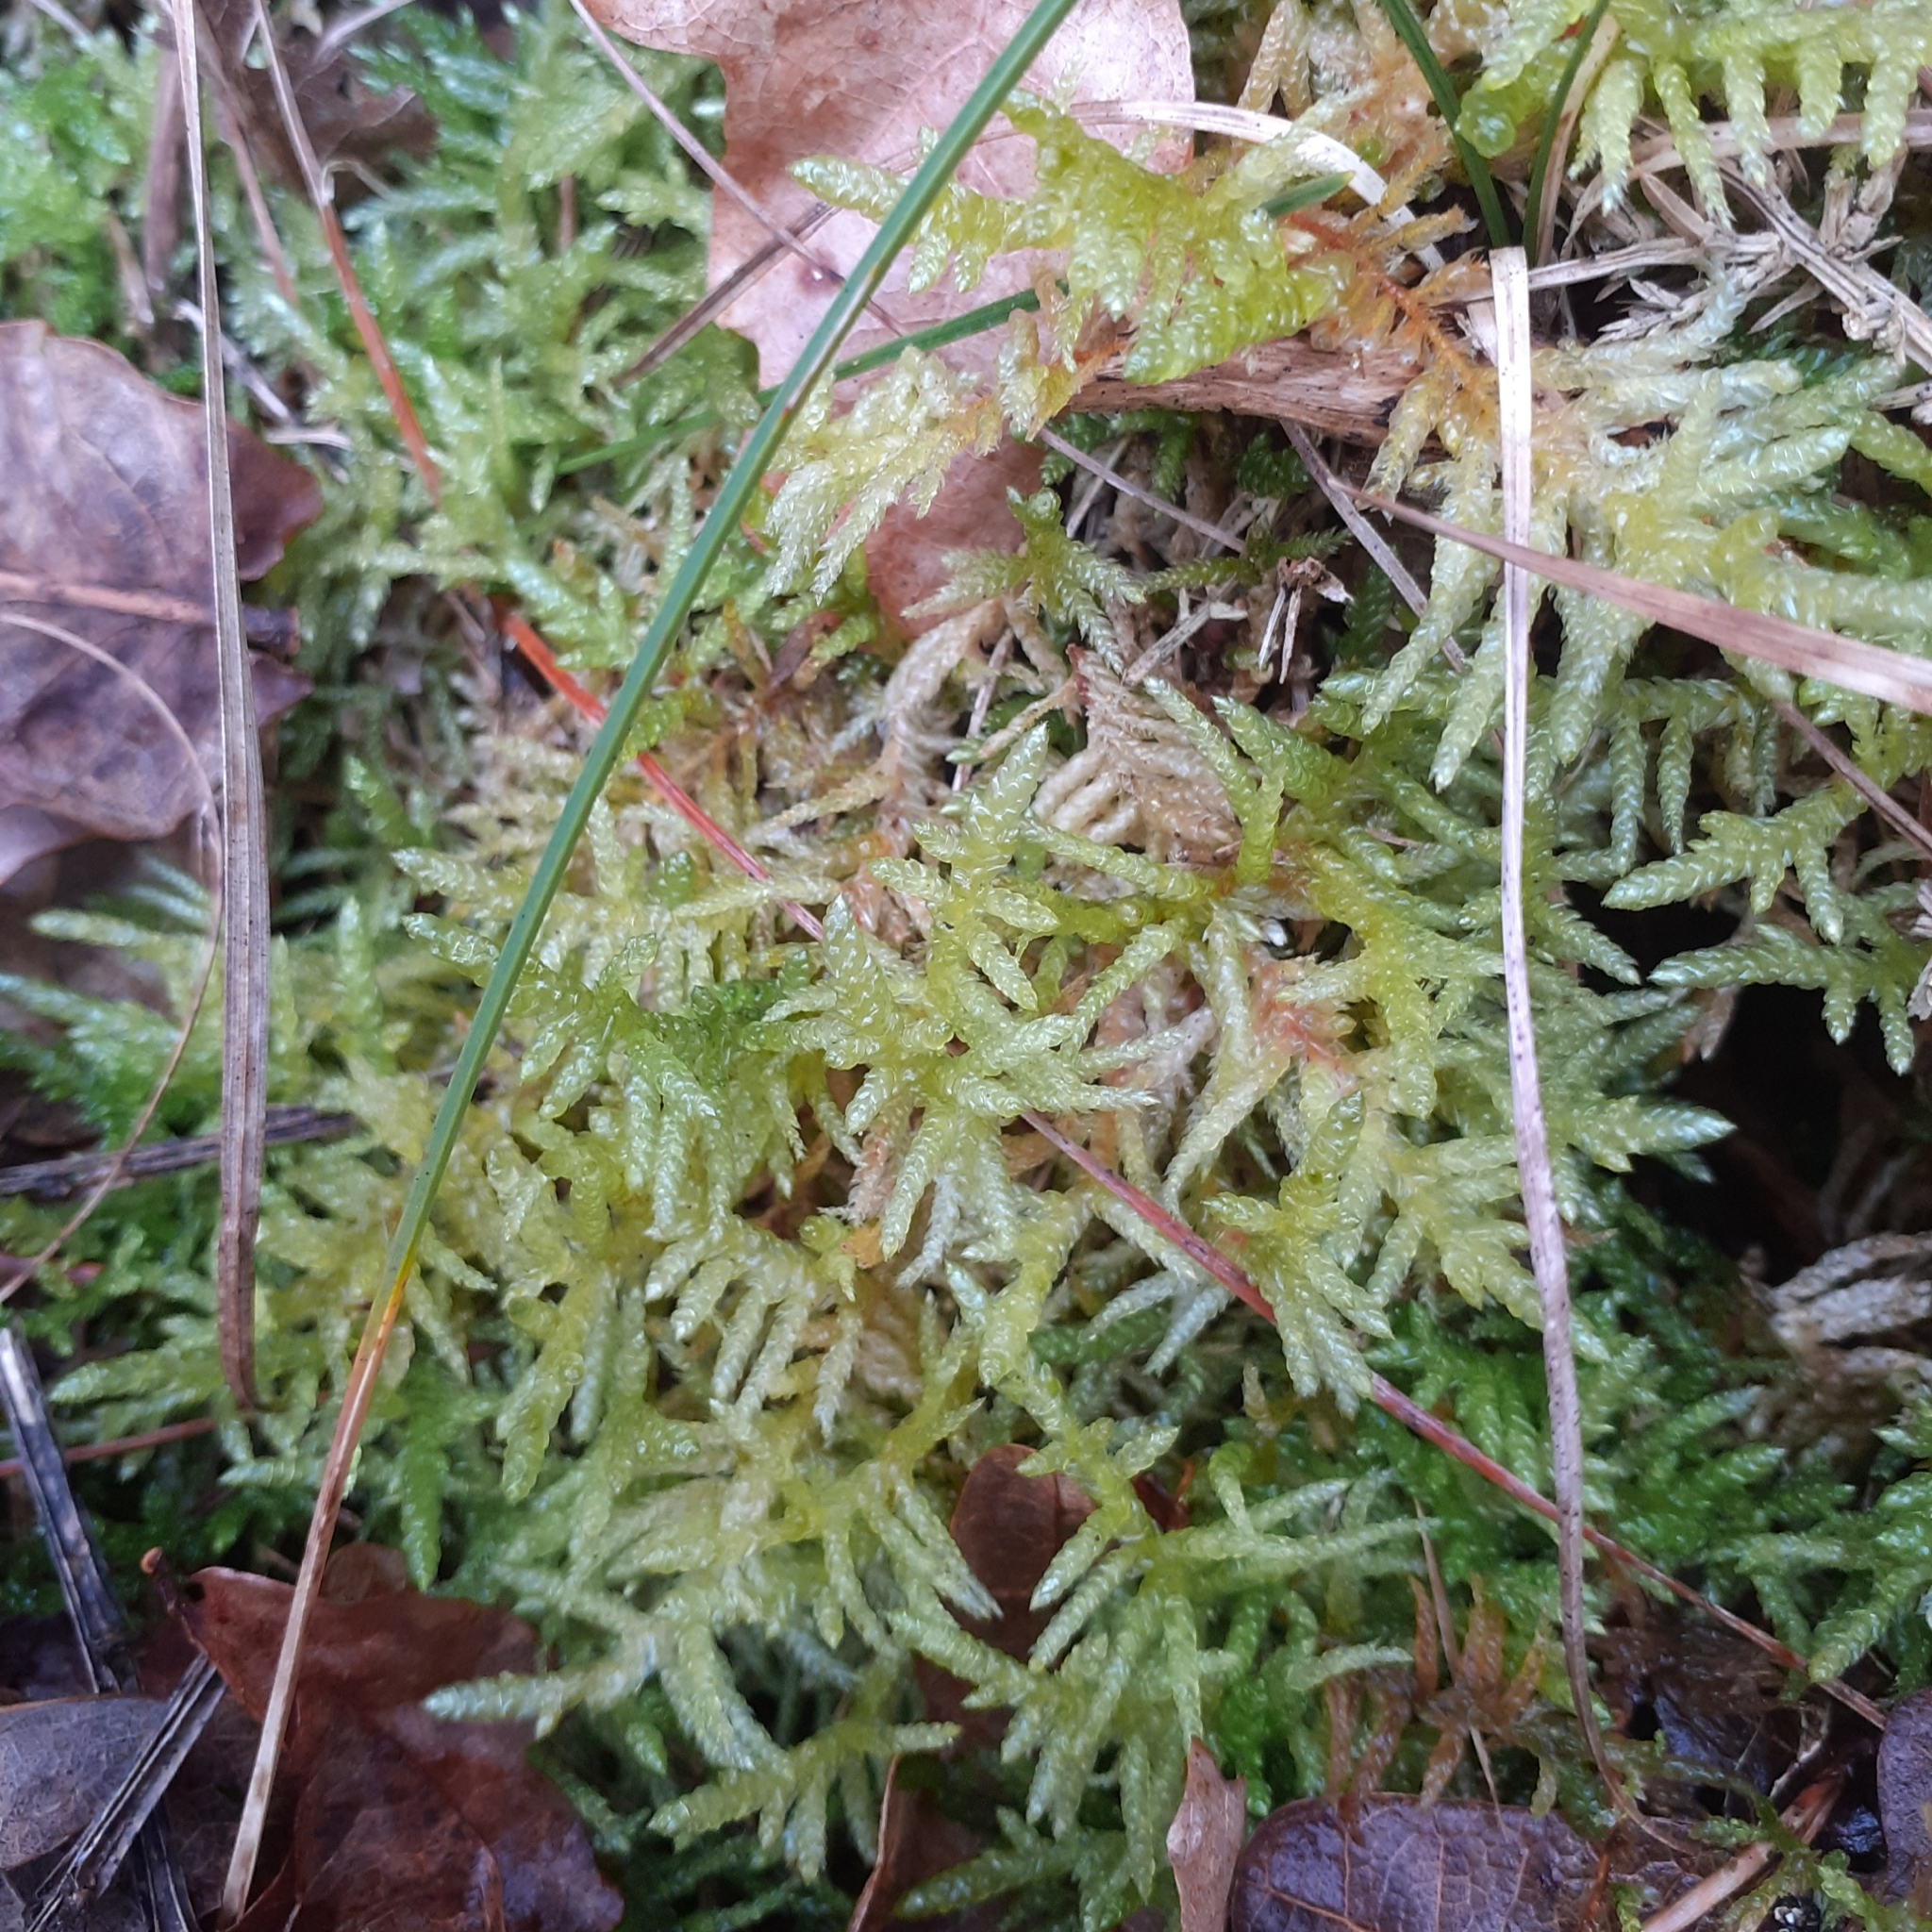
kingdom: Plantae
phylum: Bryophyta
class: Bryopsida
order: Hypnales
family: Brachytheciaceae
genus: Pseudoscleropodium
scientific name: Pseudoscleropodium purum
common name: Neat feather-moss
